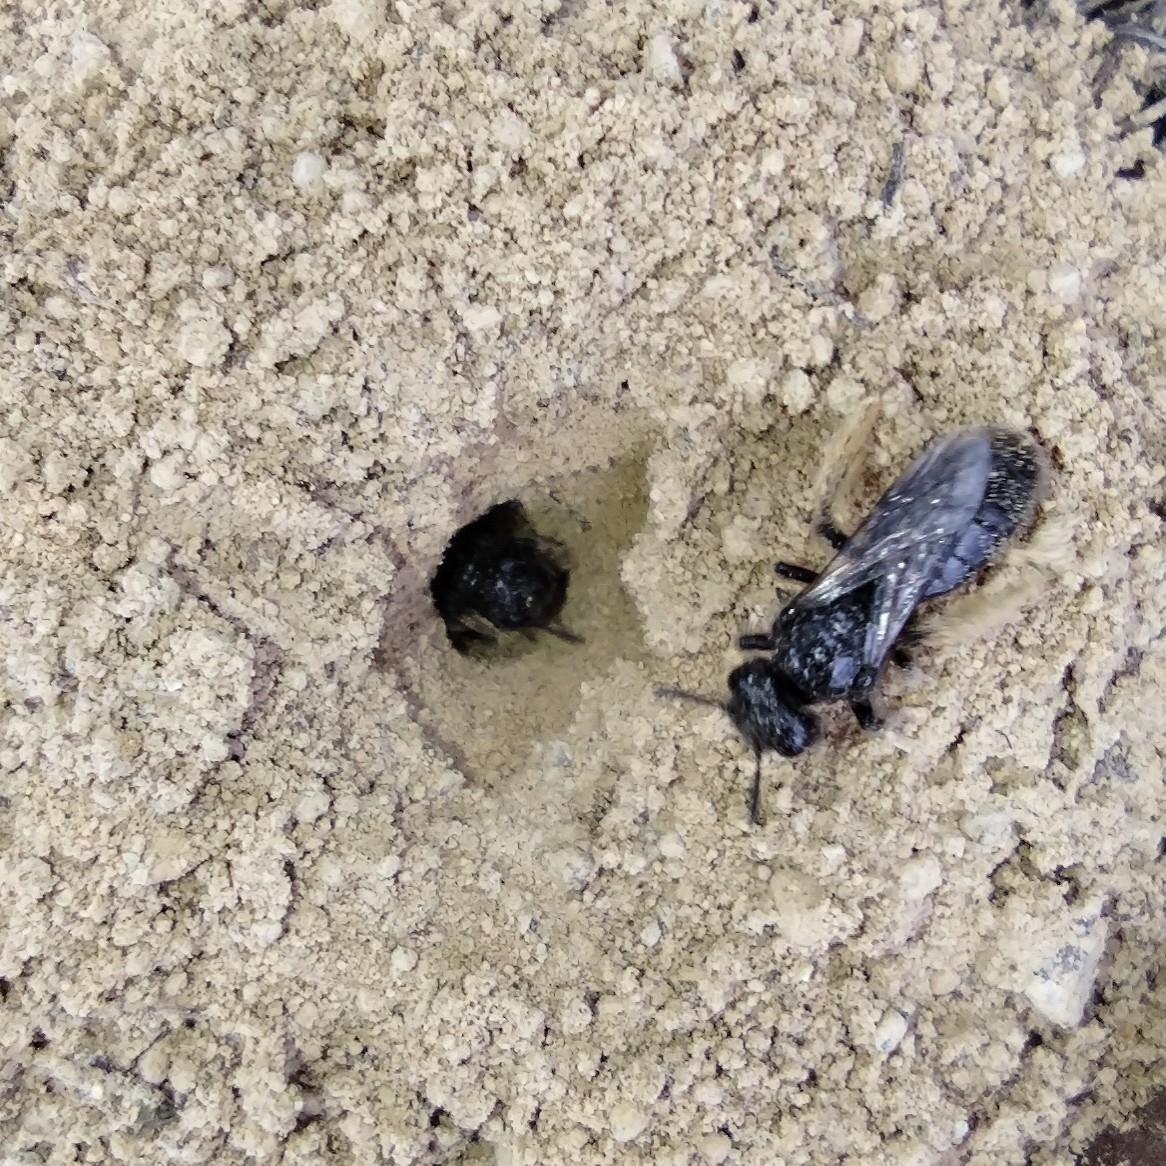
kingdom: Animalia
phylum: Arthropoda
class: Insecta
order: Hymenoptera
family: Andrenidae
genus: Panurgus
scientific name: Panurgus calcaratus
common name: Small shaggy bee
